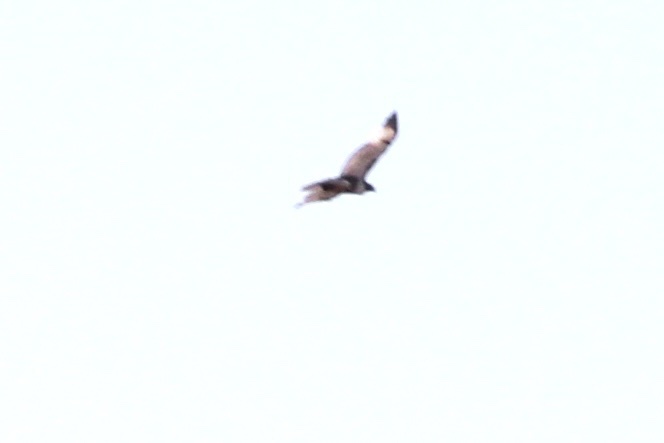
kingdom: Animalia
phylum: Chordata
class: Aves
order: Accipitriformes
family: Accipitridae
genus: Buteo
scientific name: Buteo jamaicensis
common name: Red-tailed hawk
